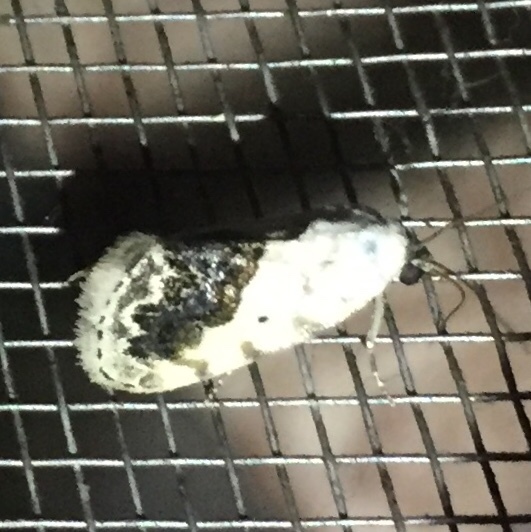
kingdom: Animalia
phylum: Arthropoda
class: Insecta
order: Lepidoptera
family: Noctuidae
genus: Acontia
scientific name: Acontia erastrioides
